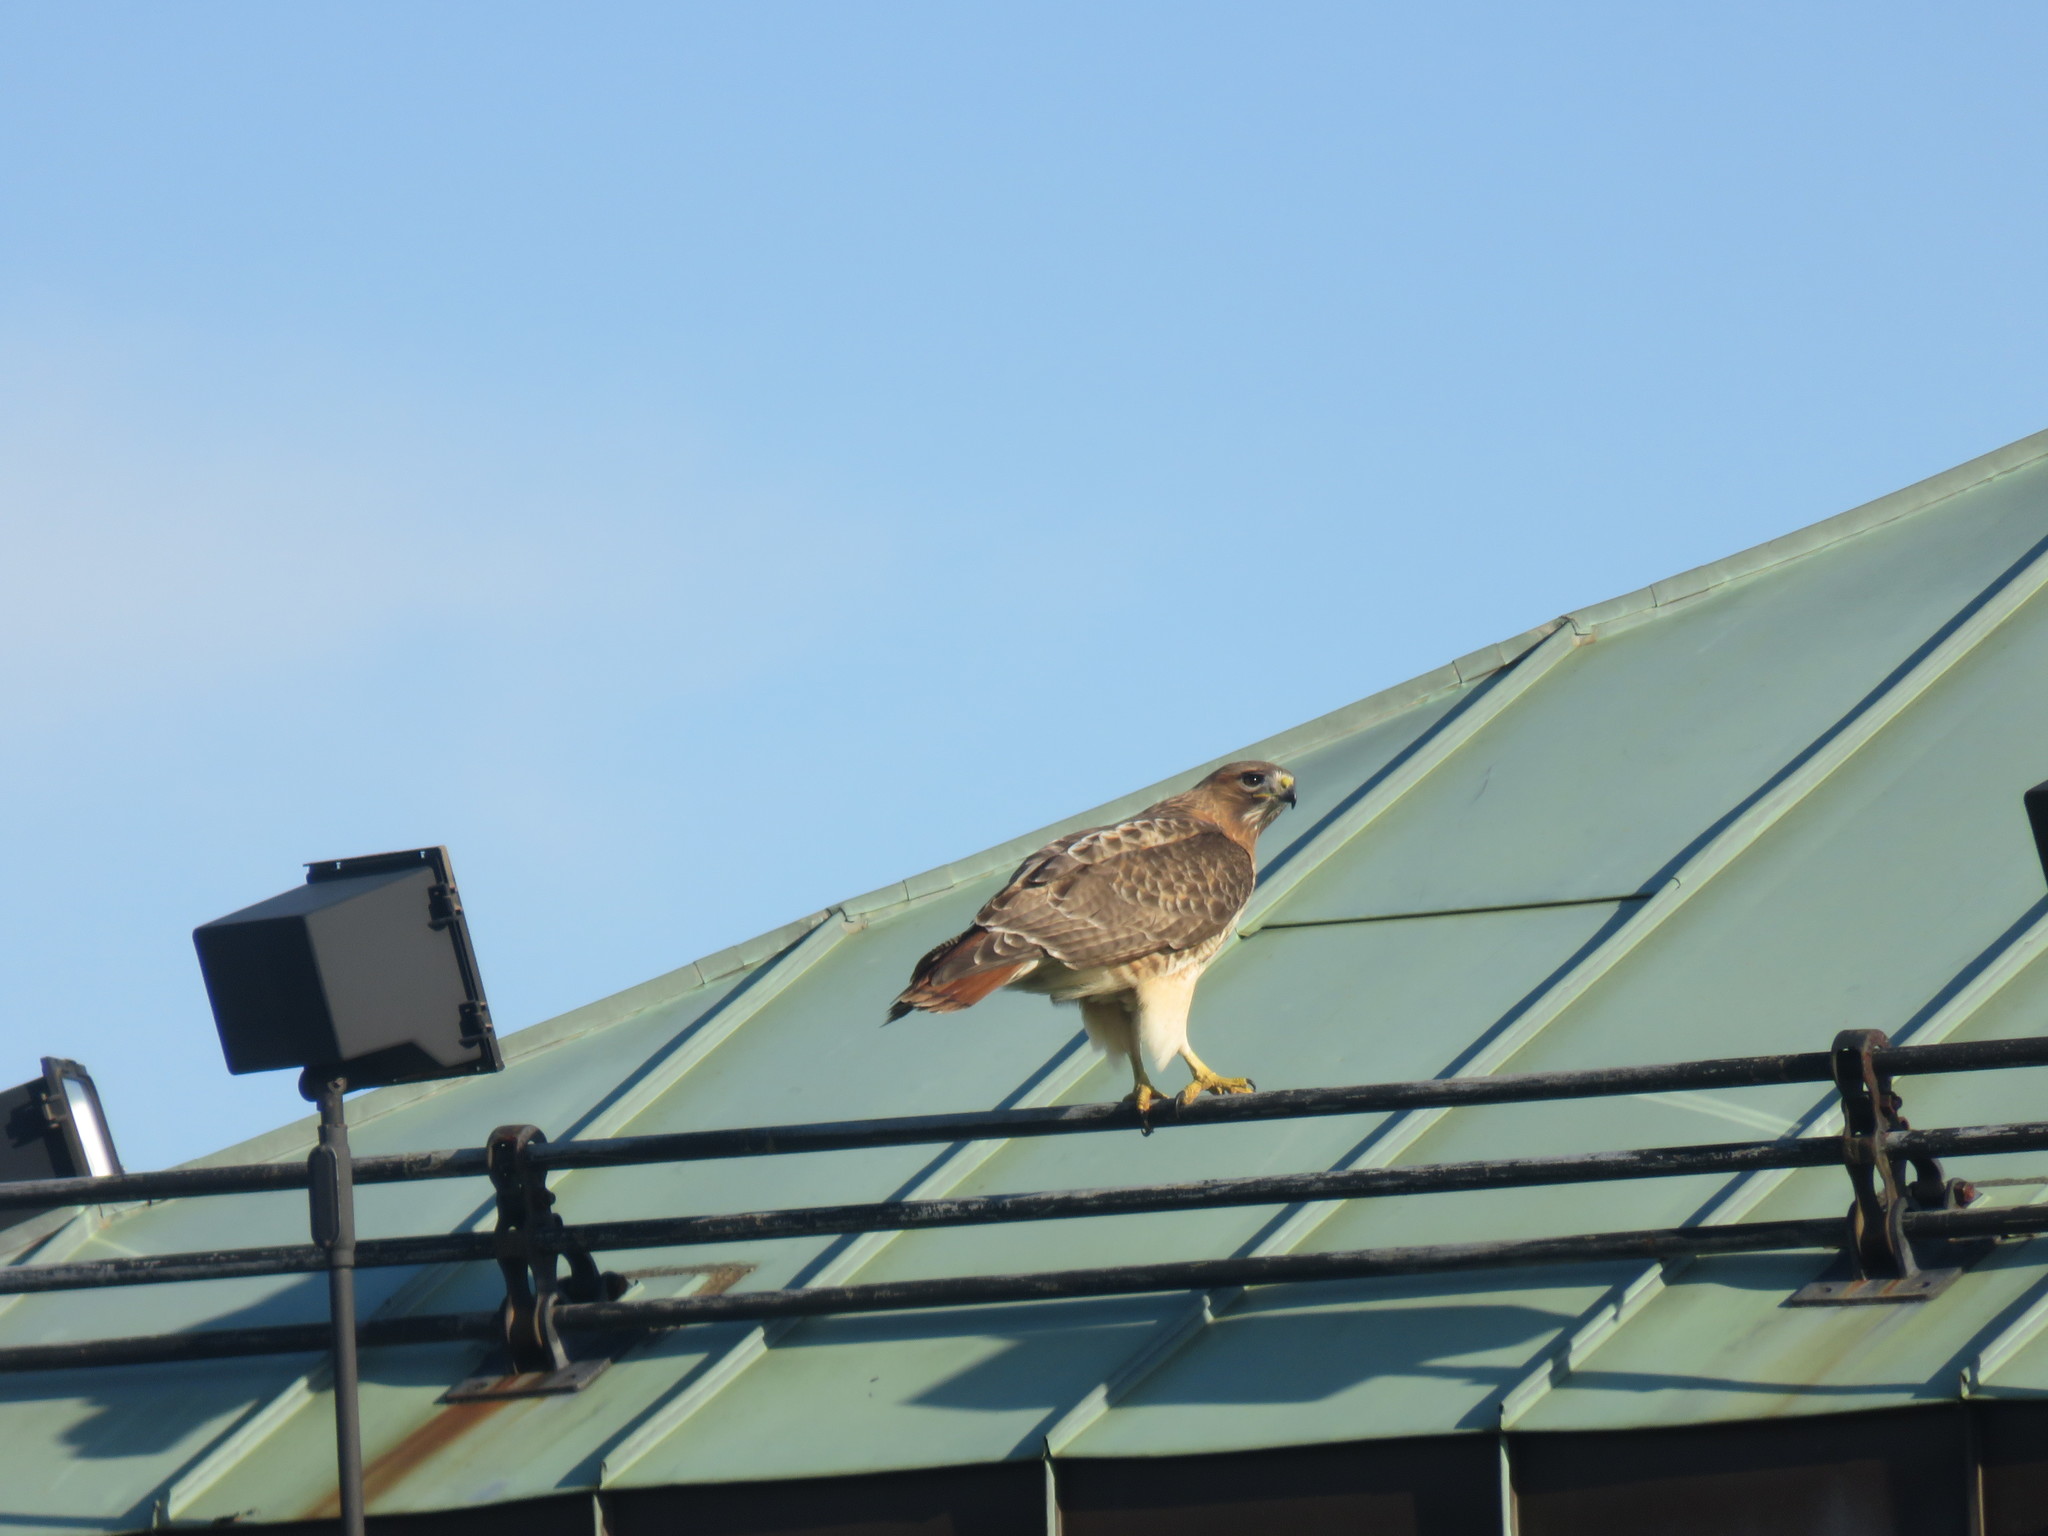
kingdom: Animalia
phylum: Chordata
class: Aves
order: Accipitriformes
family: Accipitridae
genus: Buteo
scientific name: Buteo jamaicensis
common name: Red-tailed hawk
